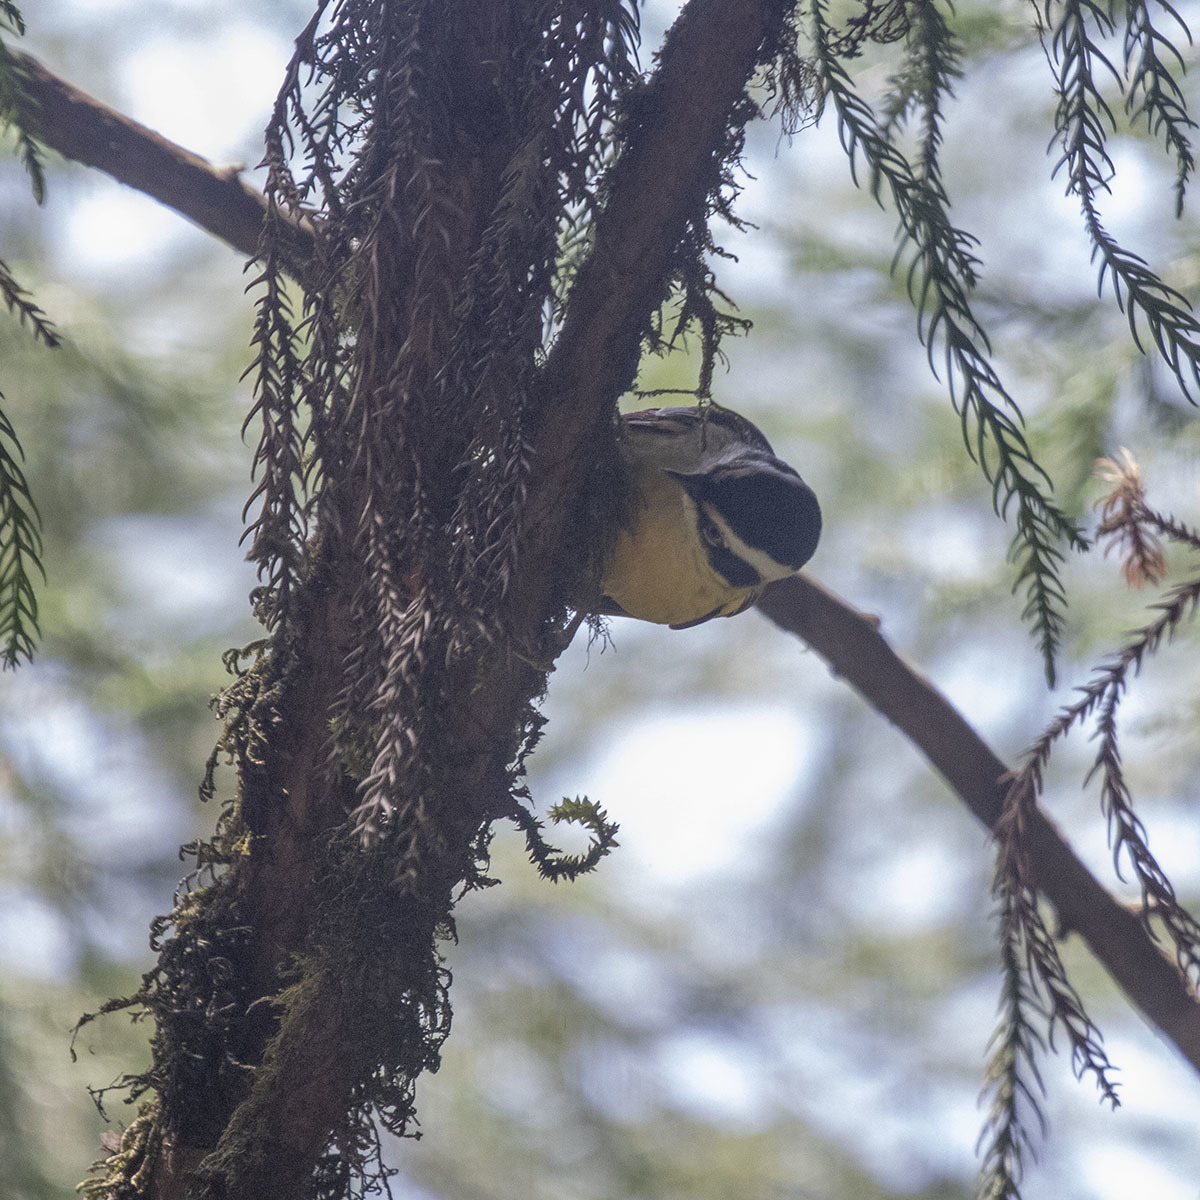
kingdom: Animalia
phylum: Chordata
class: Aves
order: Passeriformes
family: Leiothrichidae
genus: Minla
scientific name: Minla ignotincta
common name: Red-tailed minla
